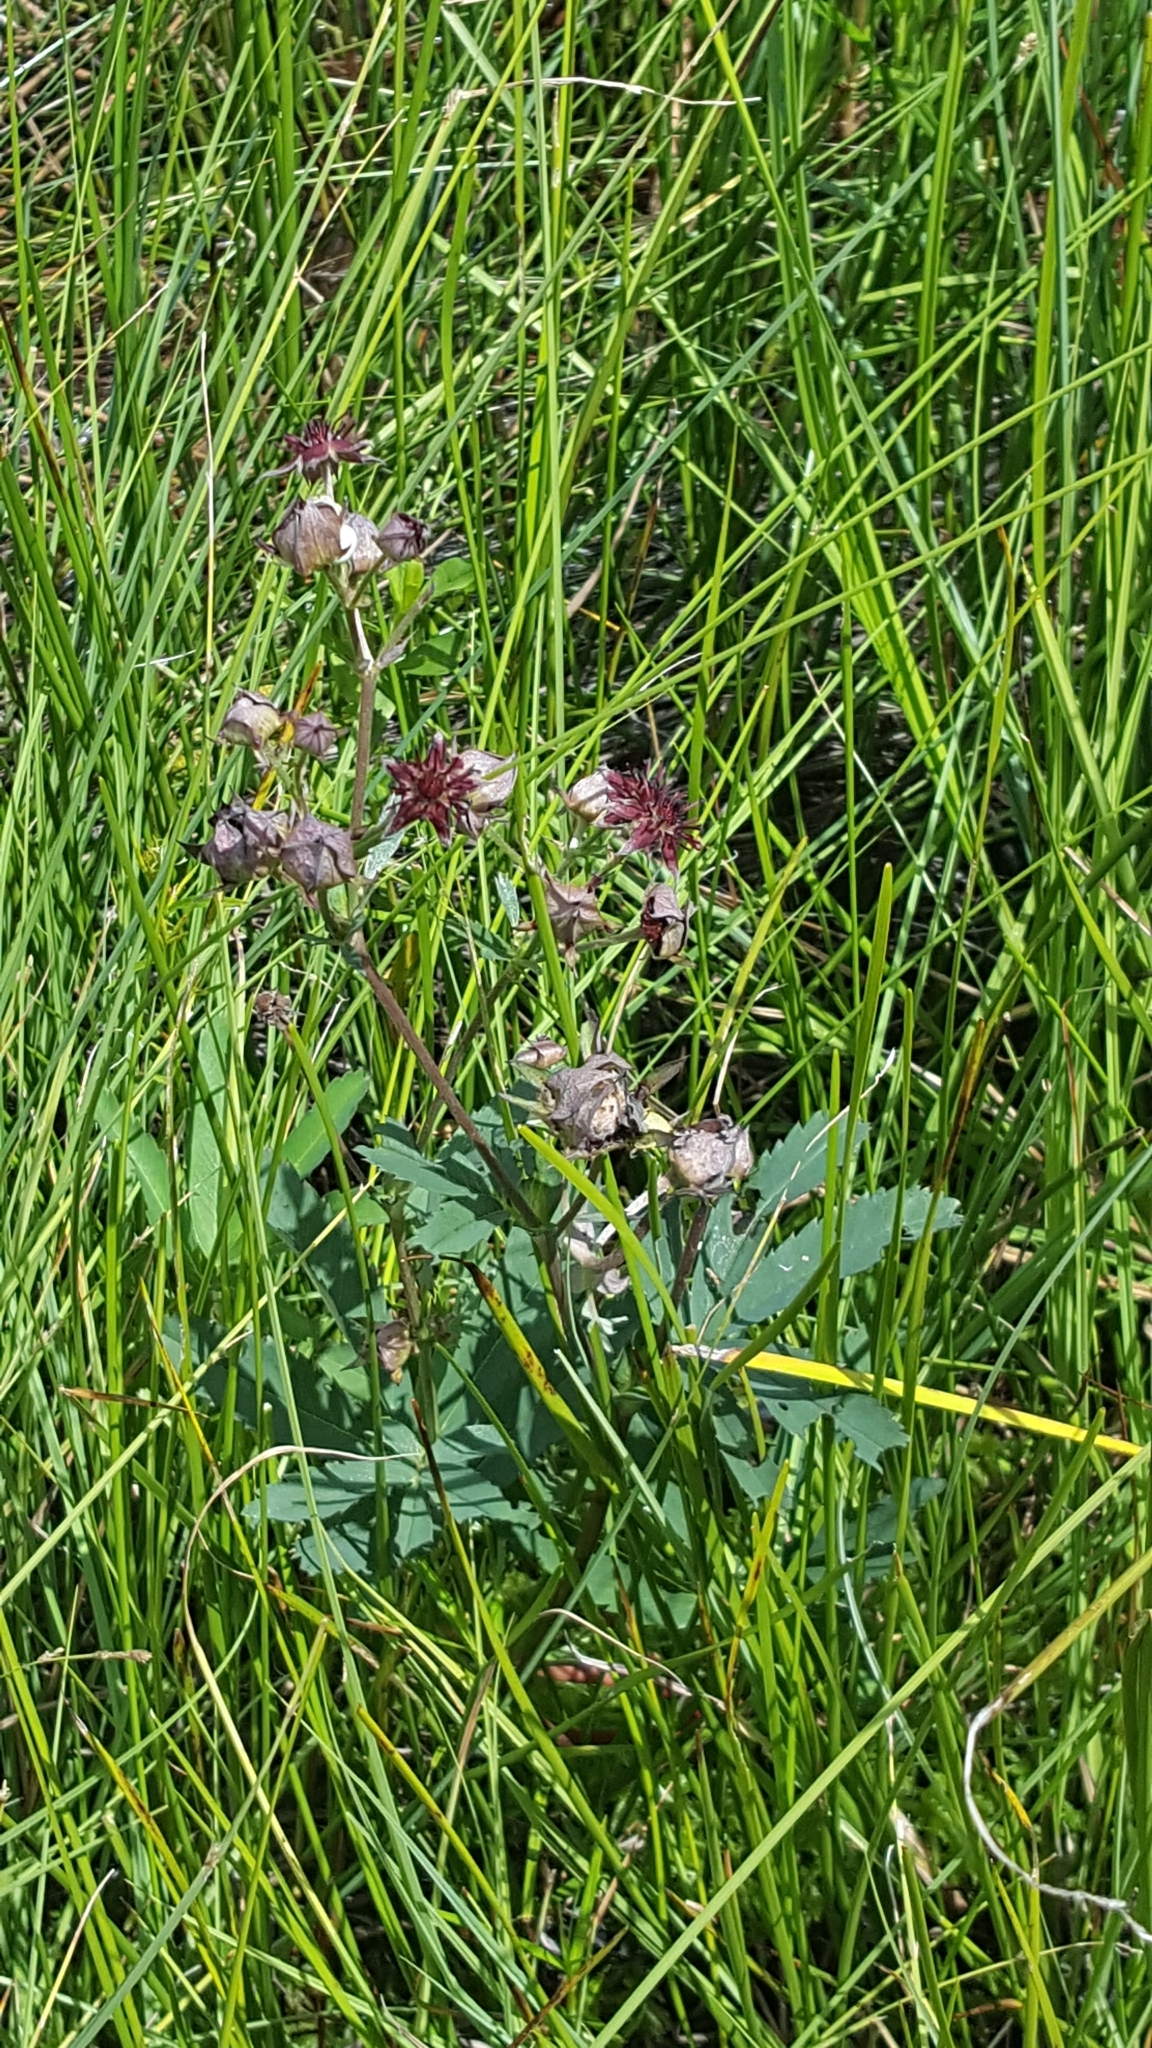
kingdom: Plantae
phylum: Tracheophyta
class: Magnoliopsida
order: Rosales
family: Rosaceae
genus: Comarum
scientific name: Comarum palustre
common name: Marsh cinquefoil
